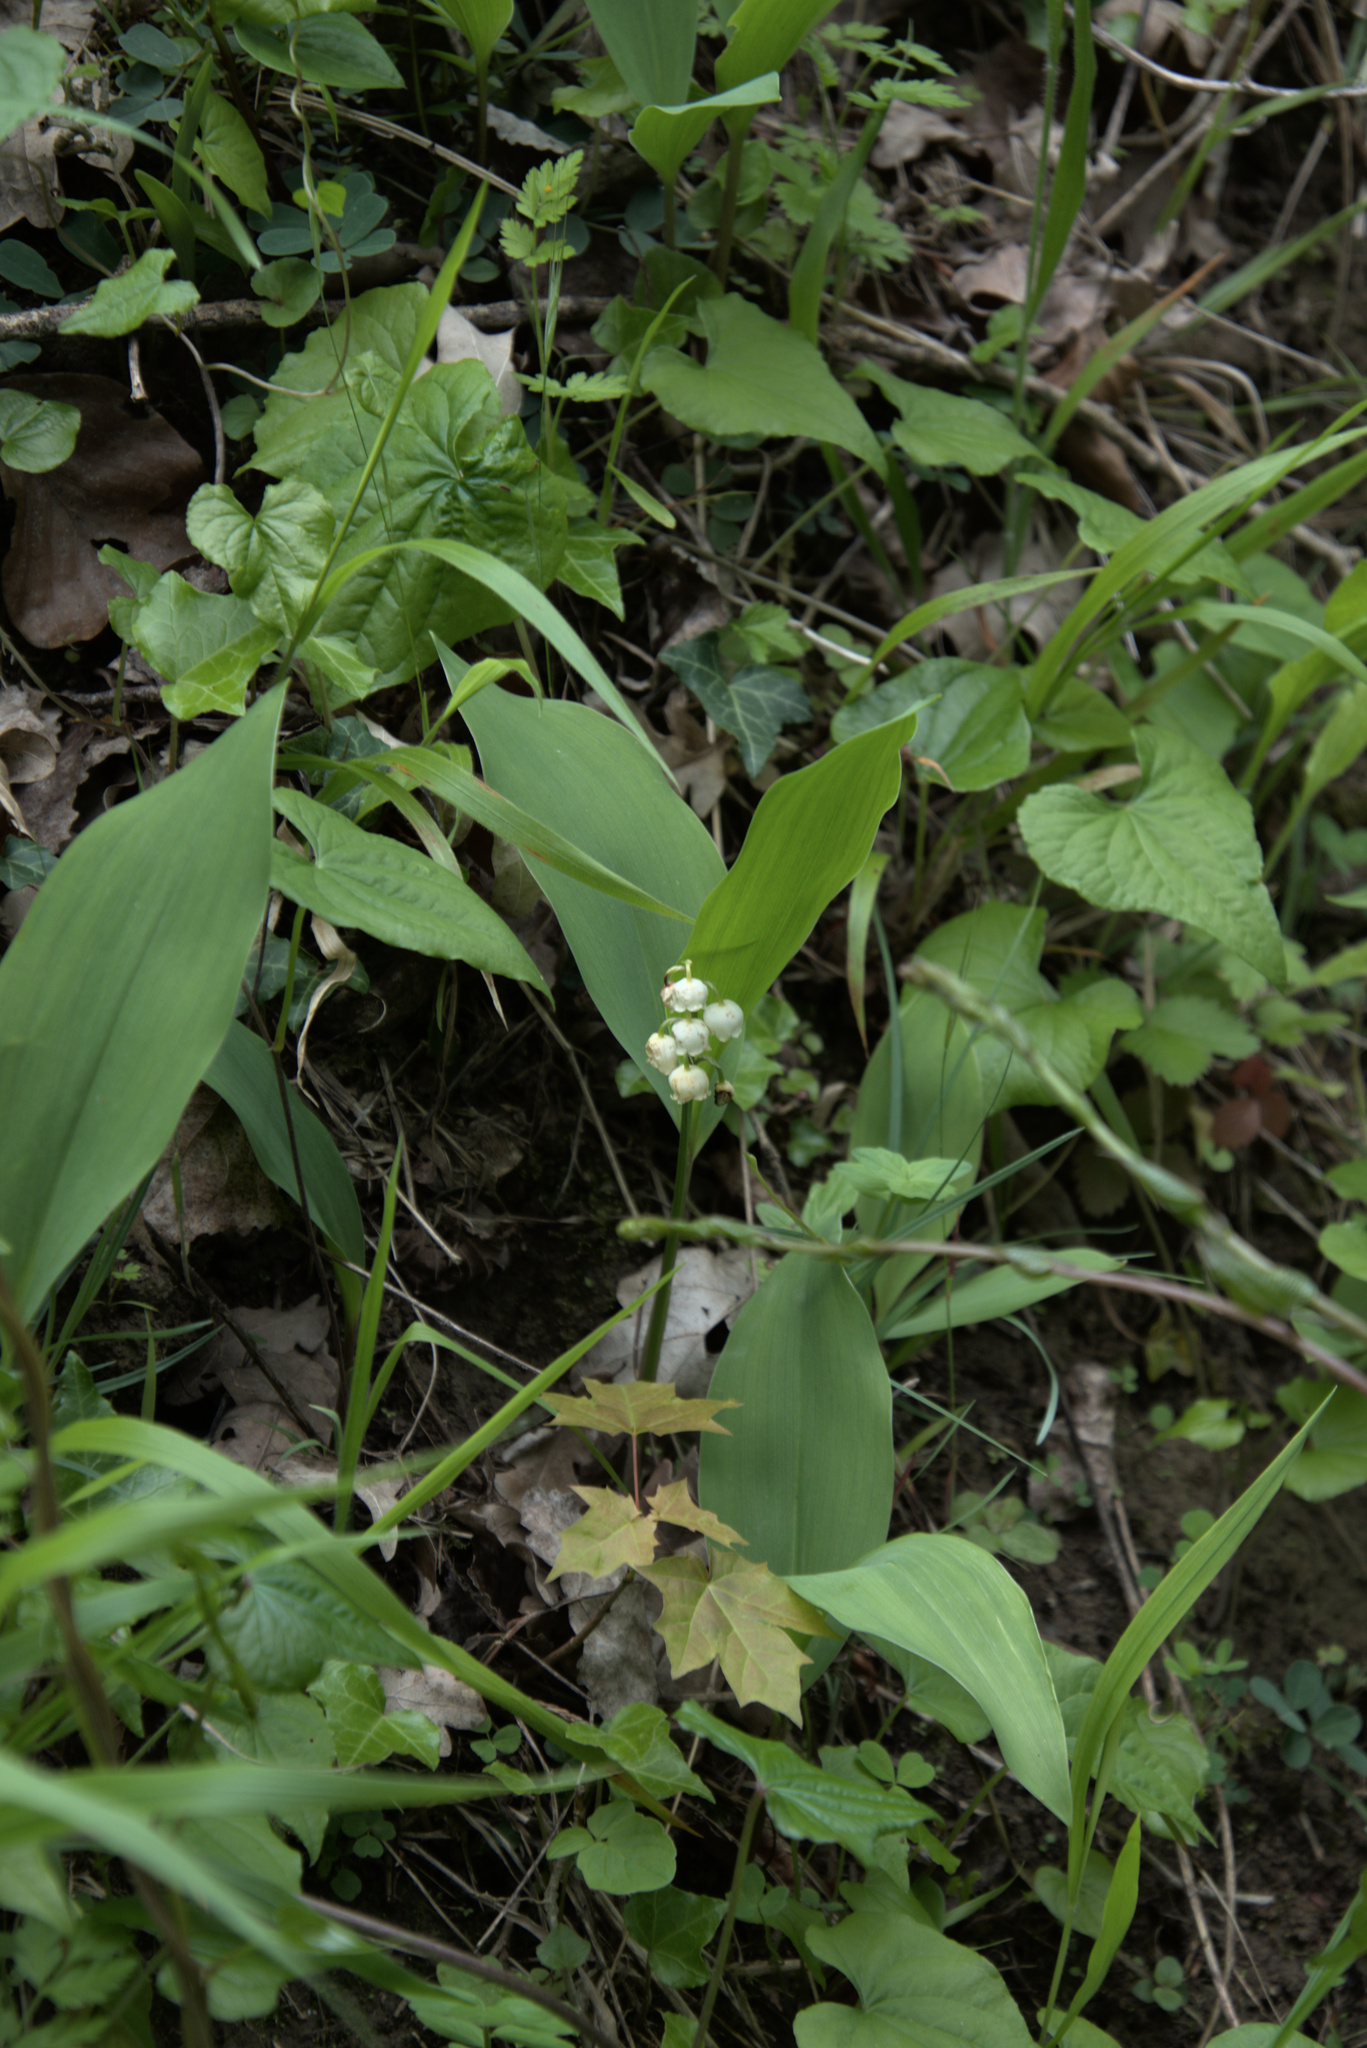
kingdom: Plantae
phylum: Tracheophyta
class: Liliopsida
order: Asparagales
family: Asparagaceae
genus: Convallaria
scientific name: Convallaria majalis
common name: Lily-of-the-valley
